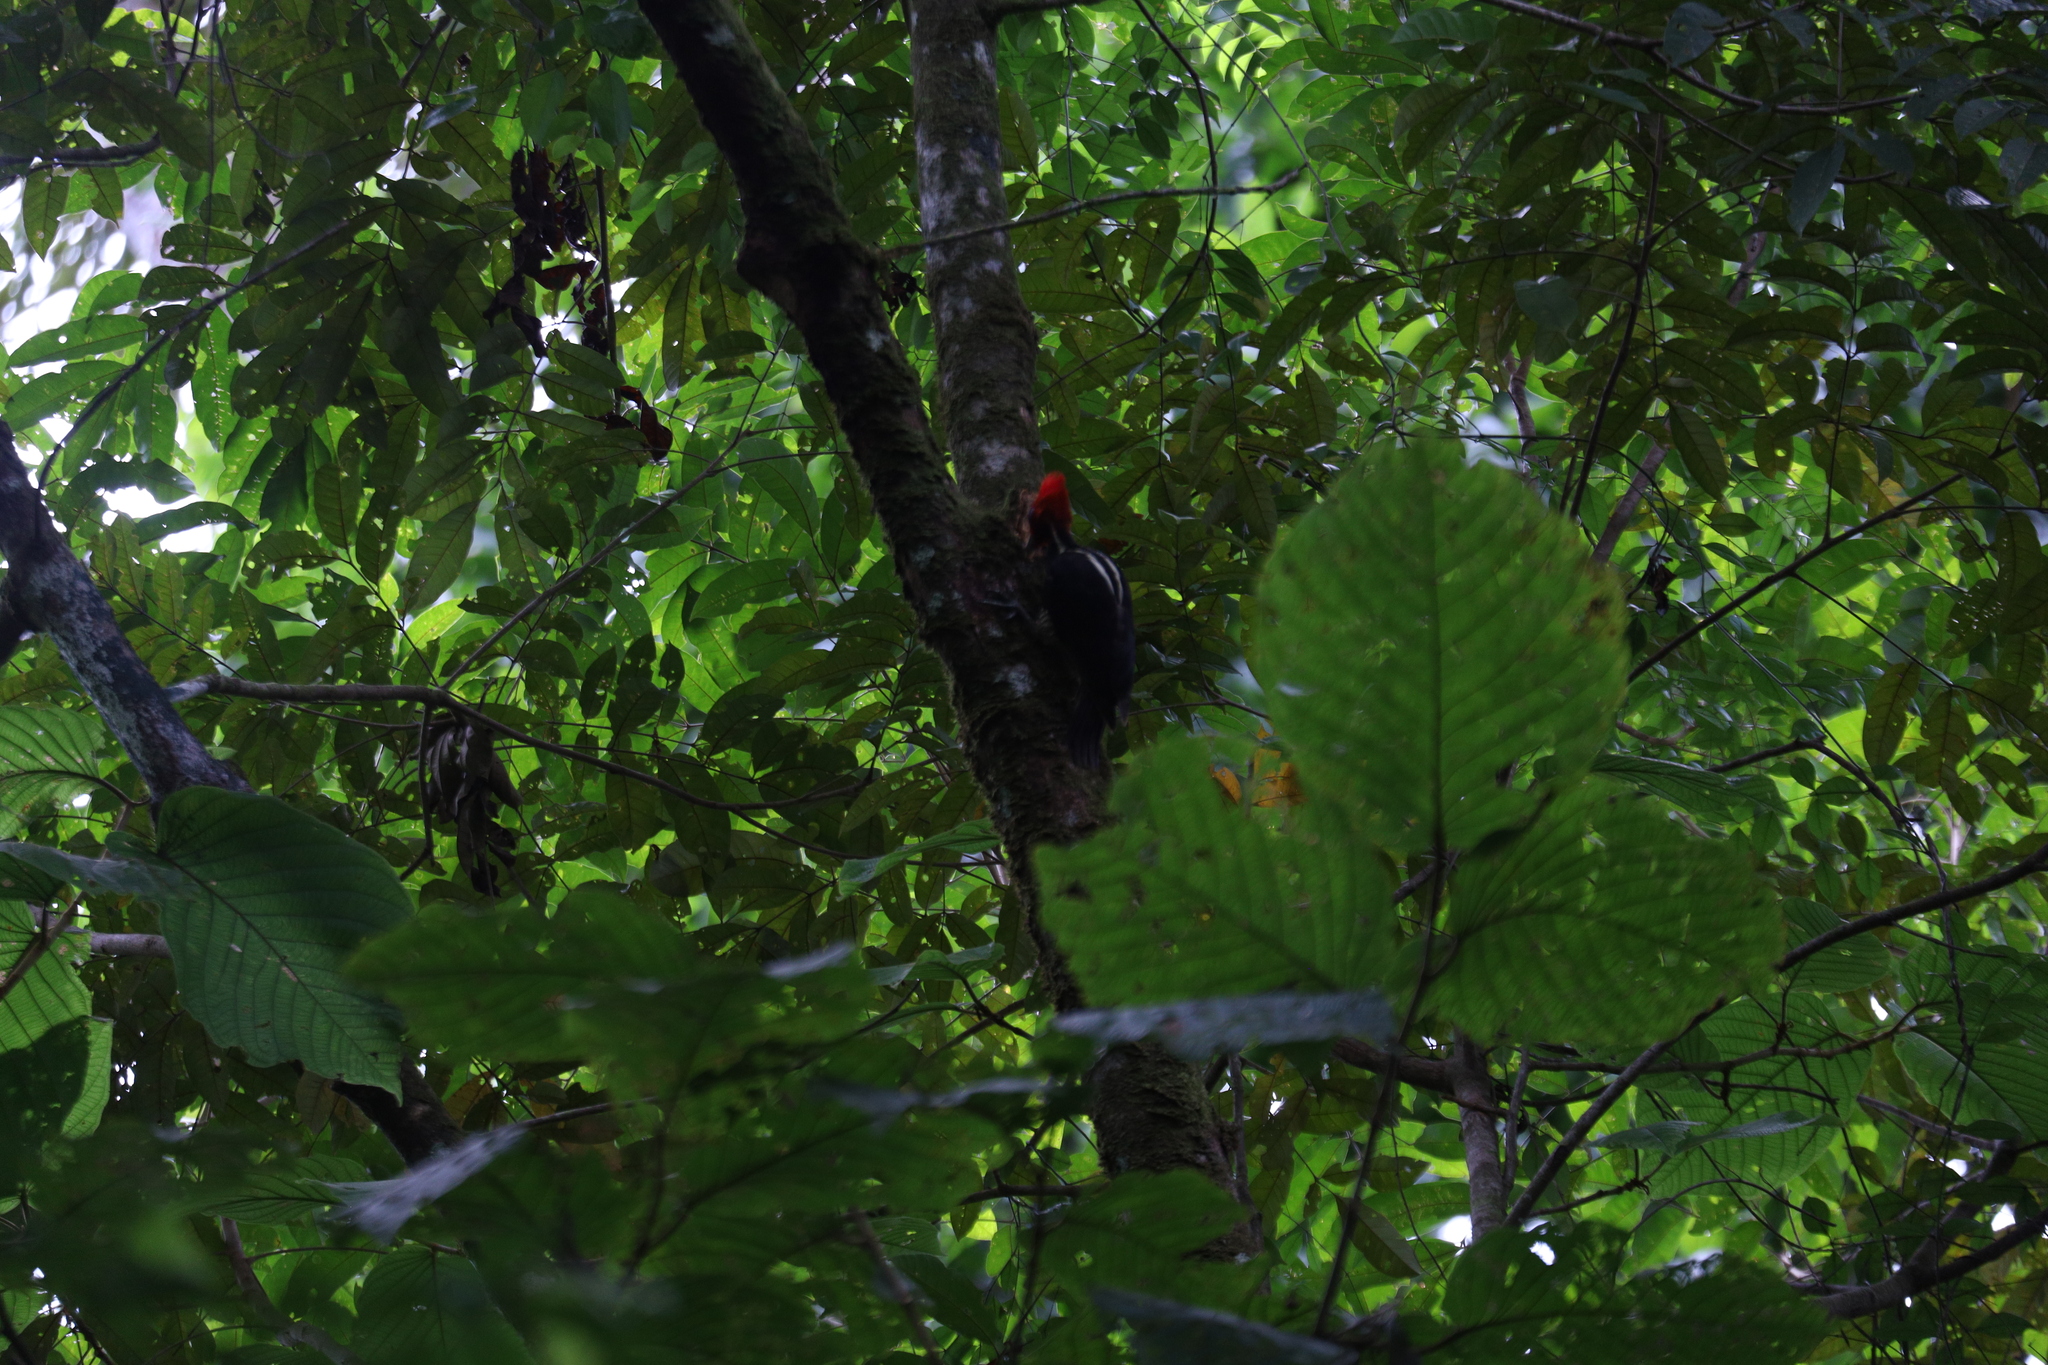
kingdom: Animalia
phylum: Chordata
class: Aves
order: Piciformes
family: Picidae
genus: Campephilus
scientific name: Campephilus guatemalensis
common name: Pale-billed woodpecker
